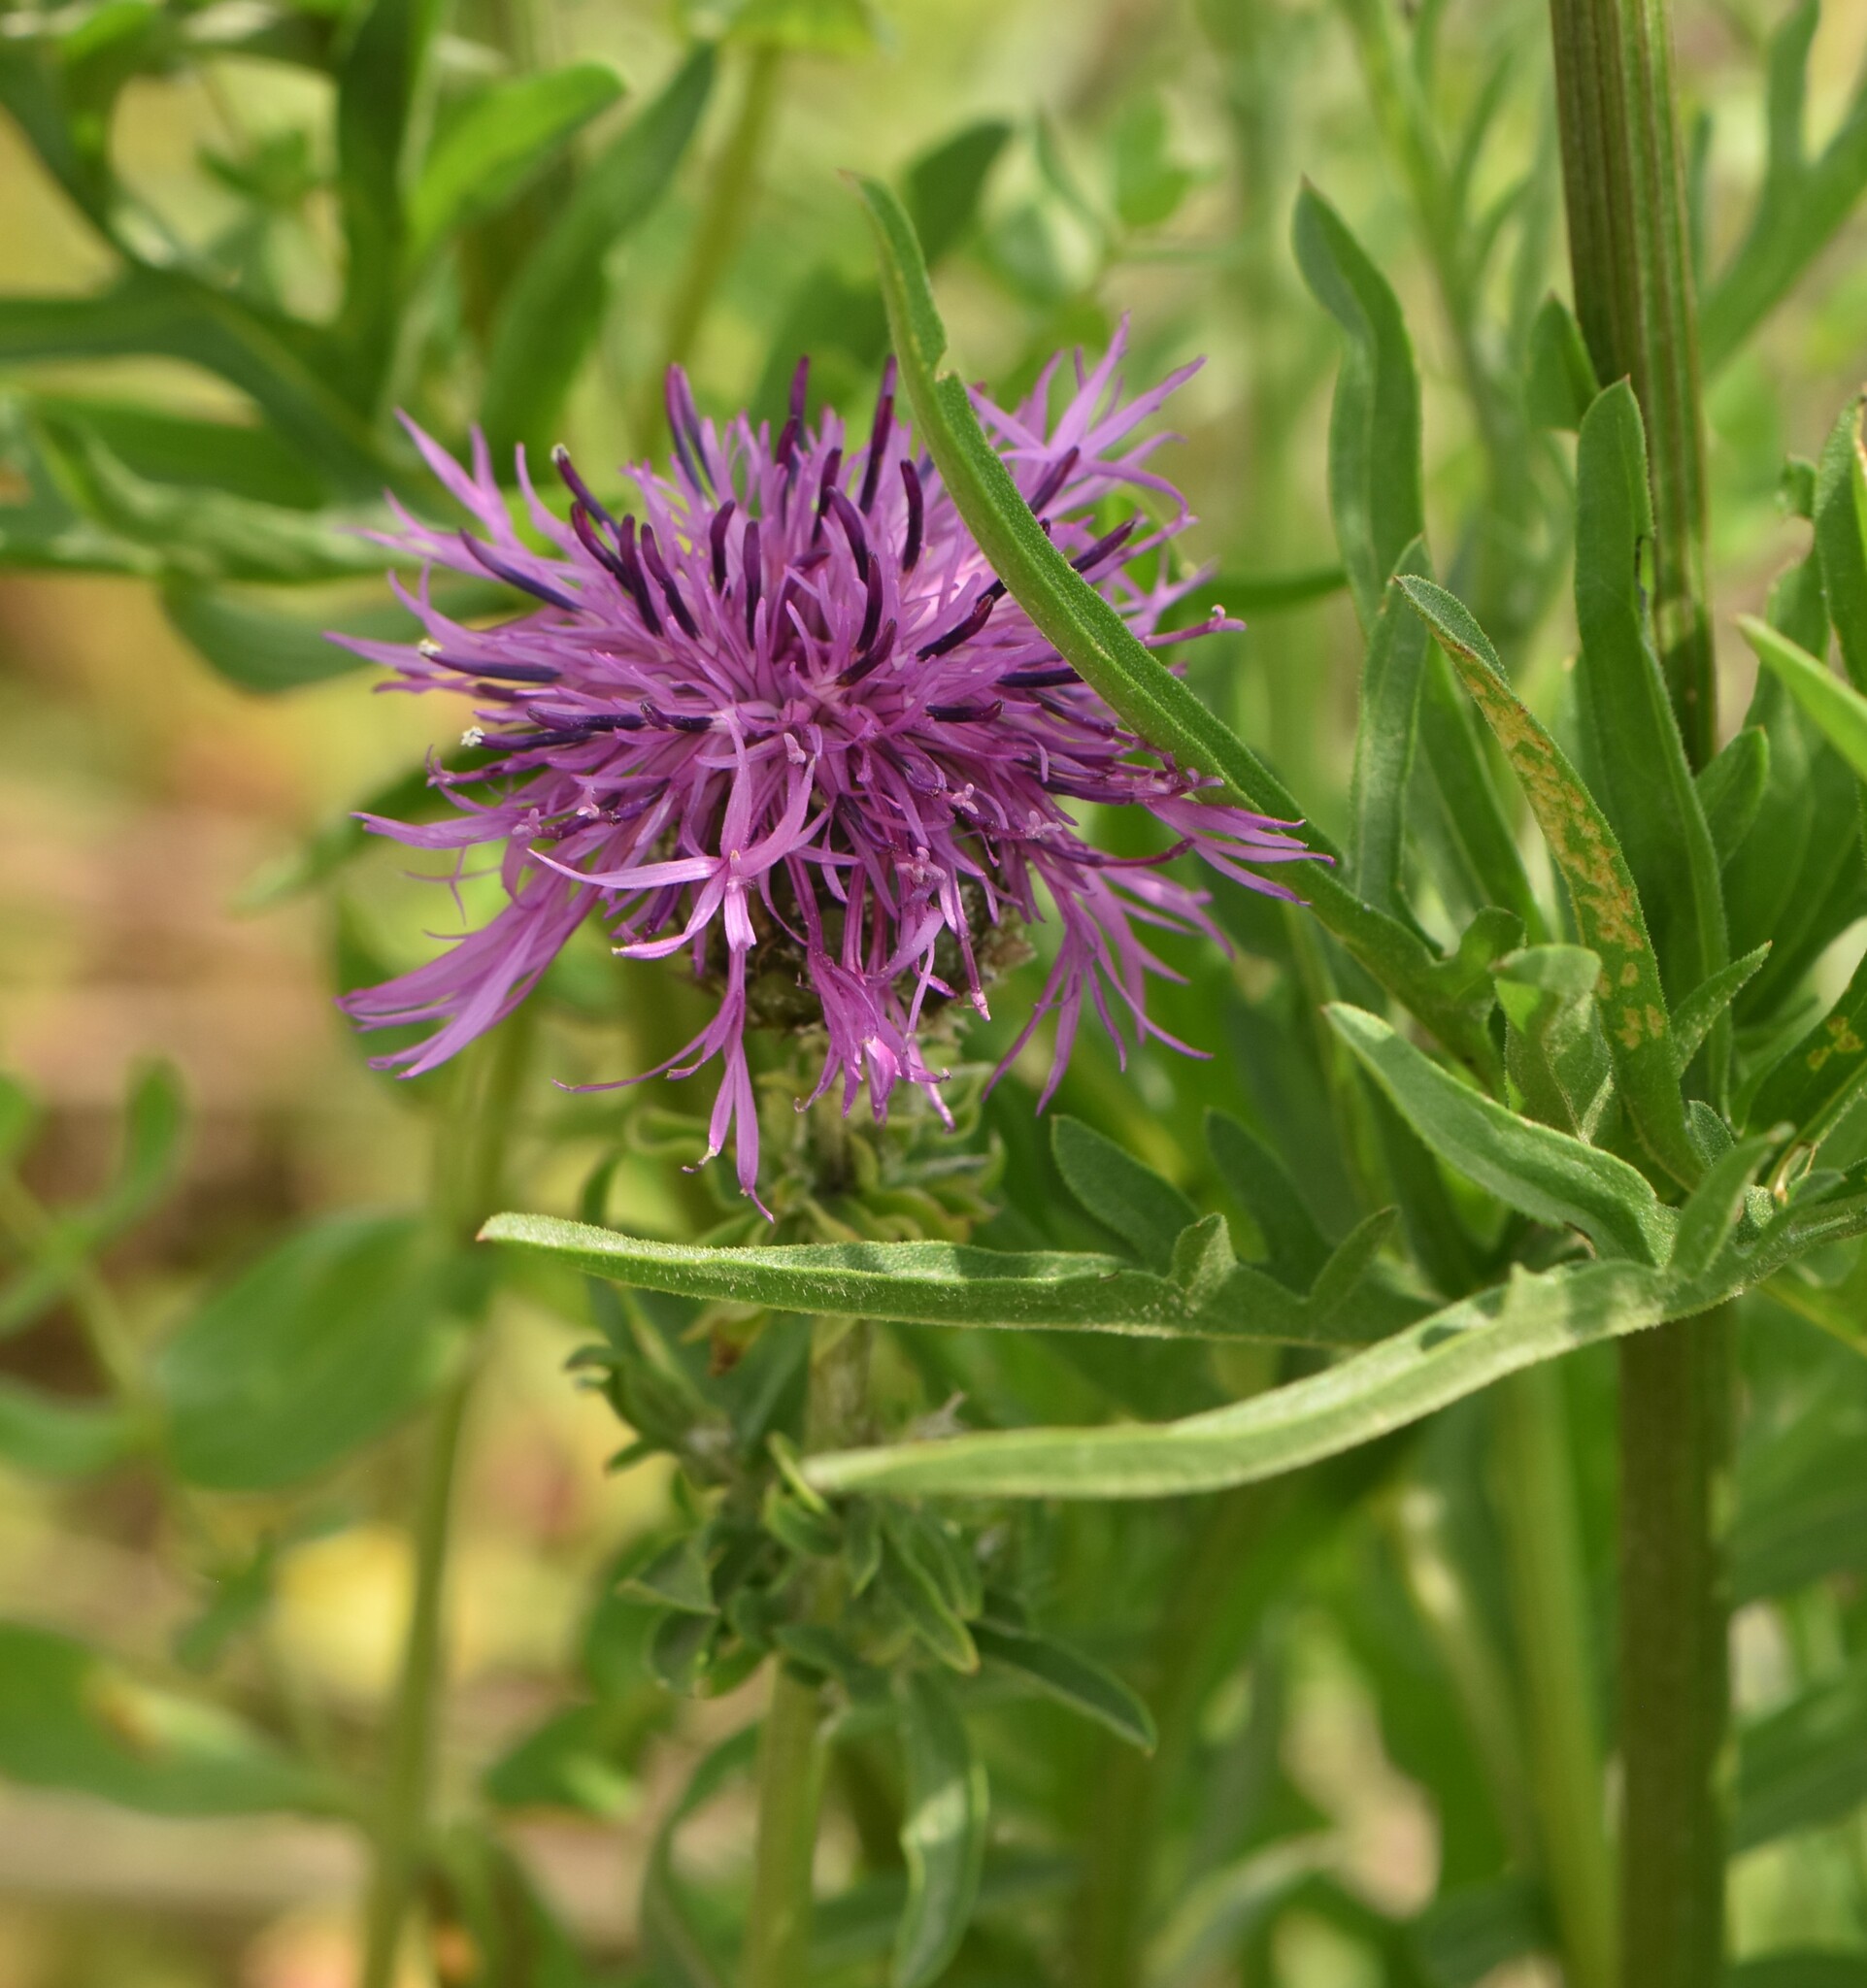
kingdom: Plantae
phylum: Tracheophyta
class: Magnoliopsida
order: Asterales
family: Asteraceae
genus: Centaurea
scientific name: Centaurea scabiosa
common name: Greater knapweed
